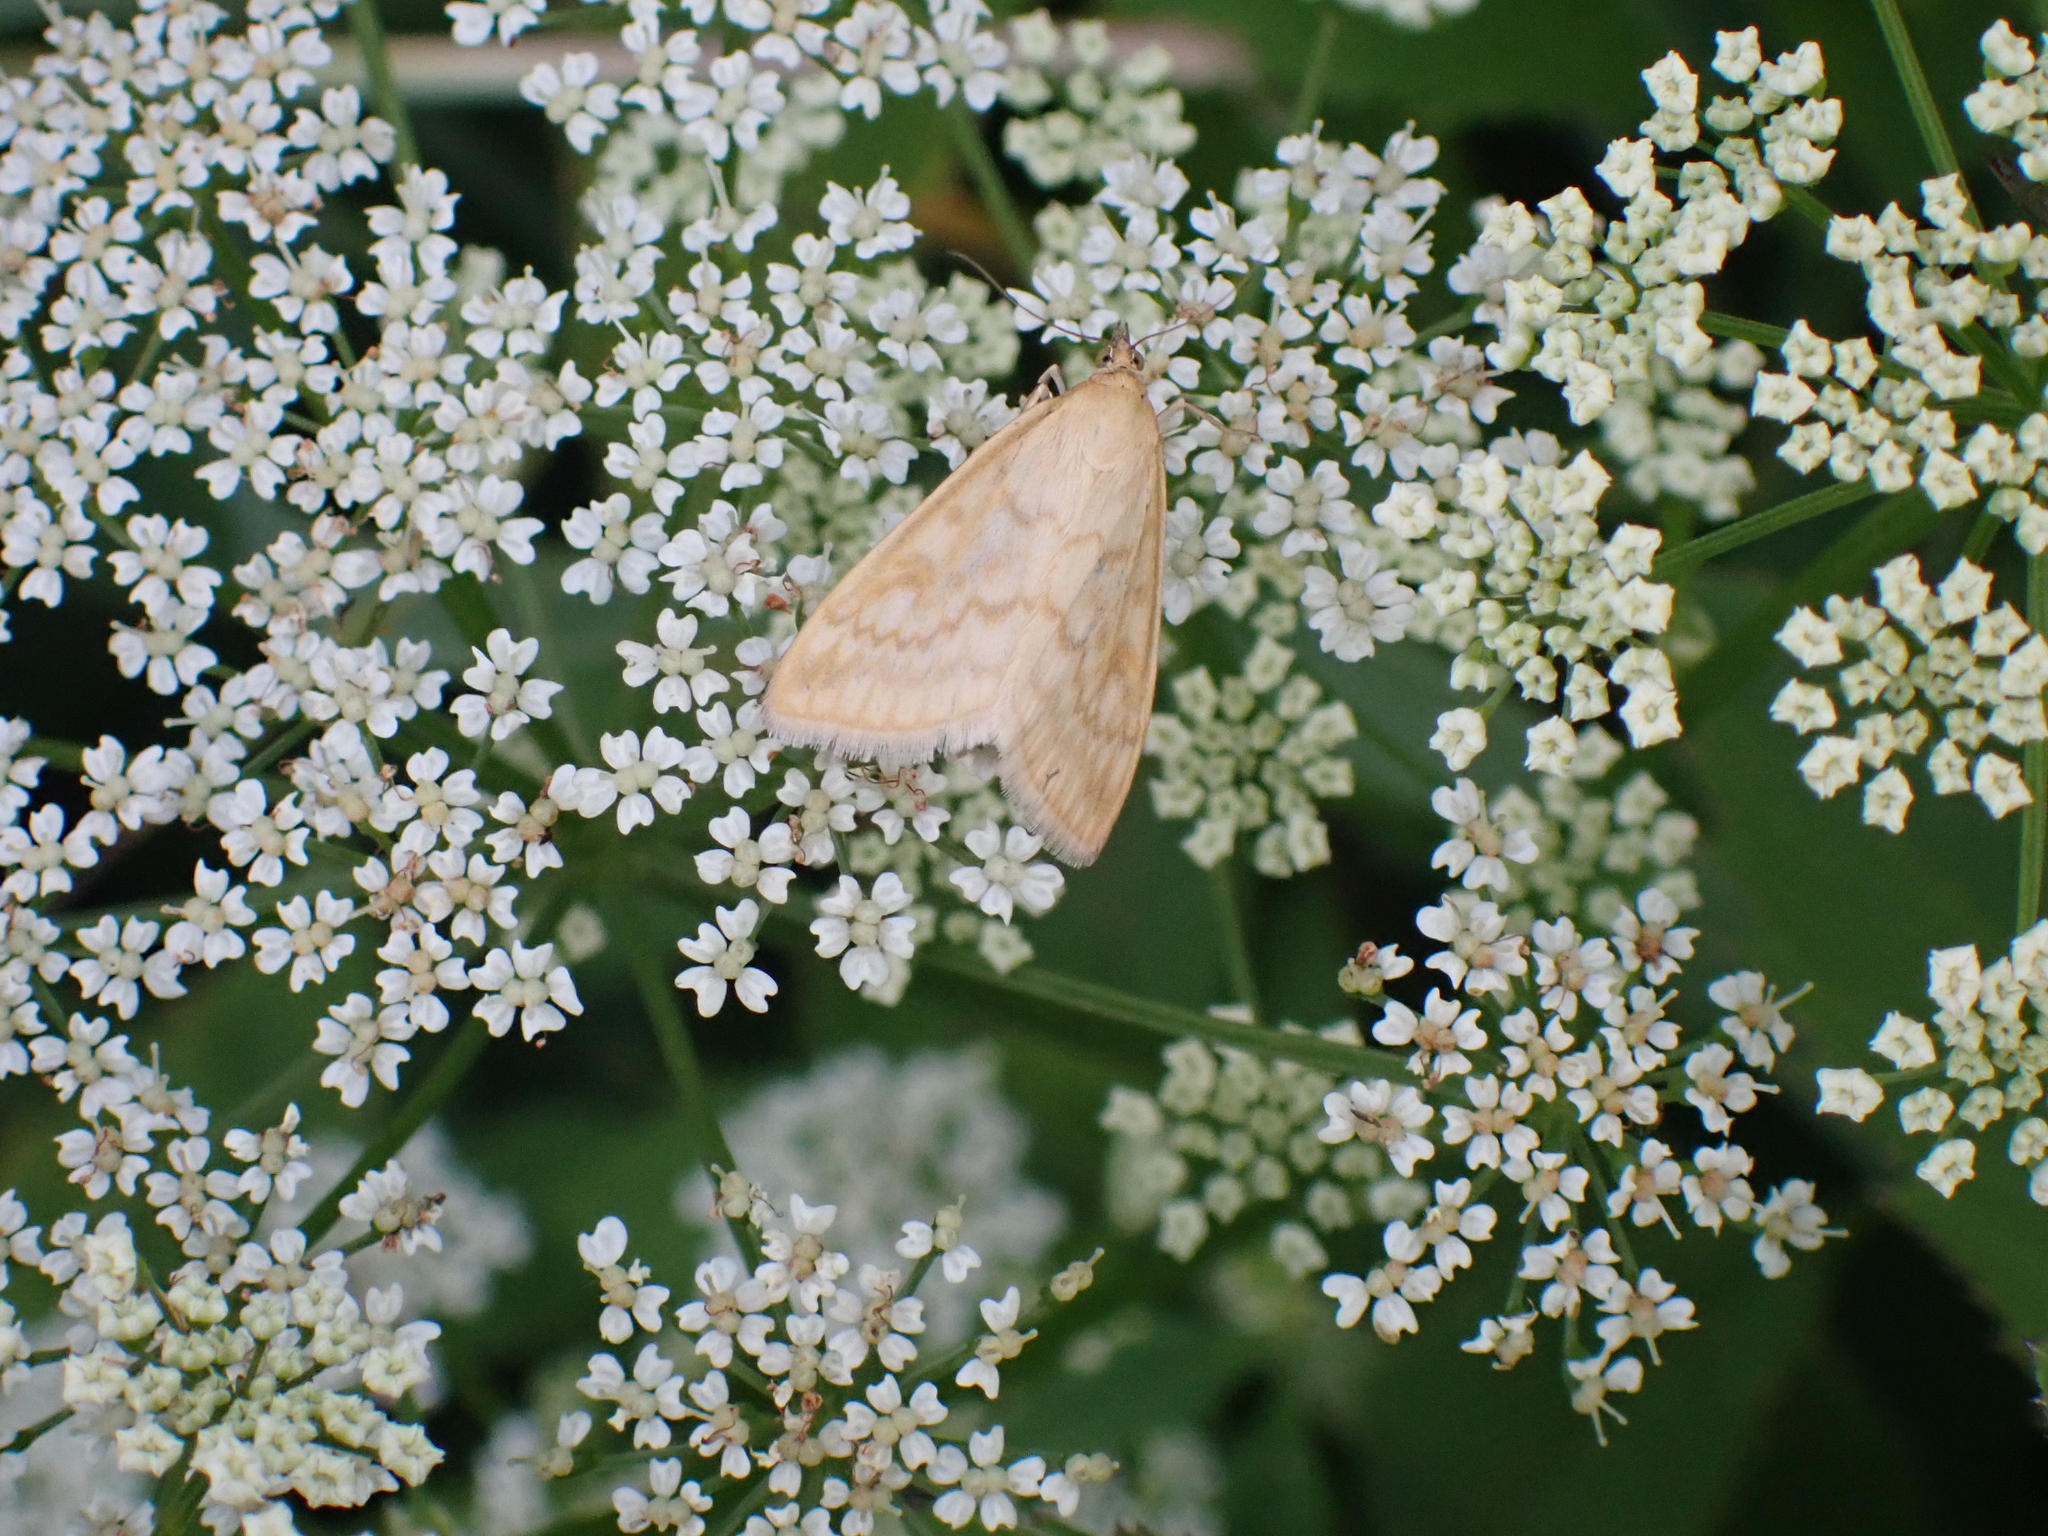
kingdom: Animalia
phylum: Arthropoda
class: Insecta
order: Lepidoptera
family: Crambidae
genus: Sitochroa
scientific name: Sitochroa verticalis
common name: Lesser pearl
